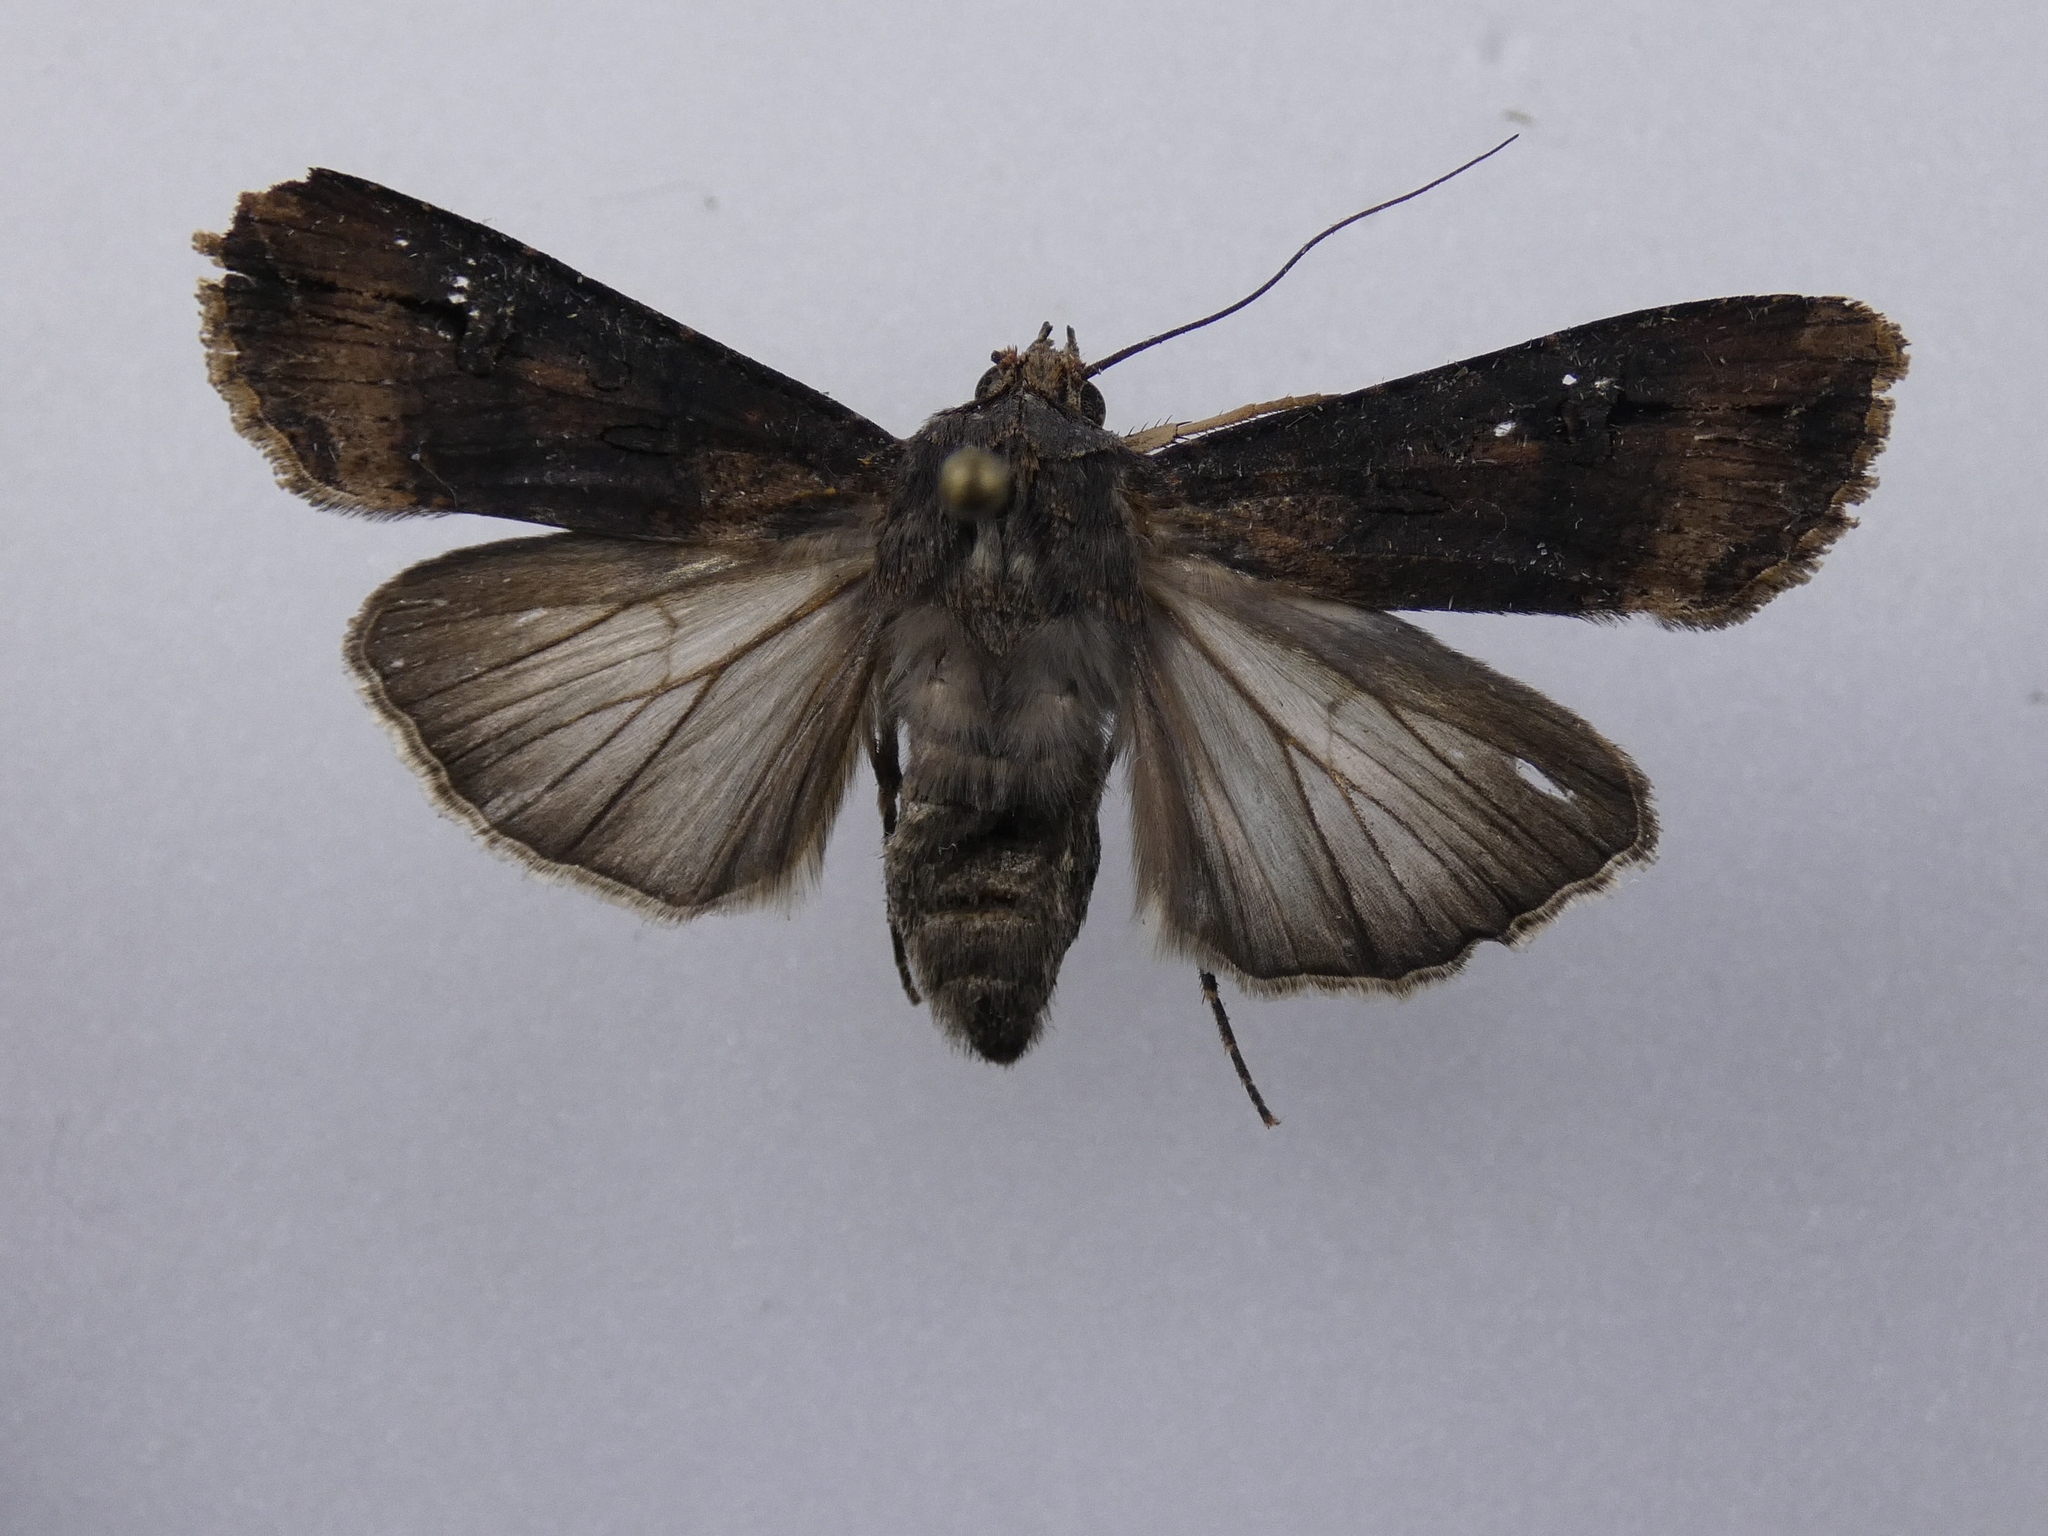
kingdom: Animalia
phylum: Arthropoda
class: Insecta
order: Lepidoptera
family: Noctuidae
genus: Agrotis
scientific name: Agrotis ipsilon
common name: Dark sword-grass
